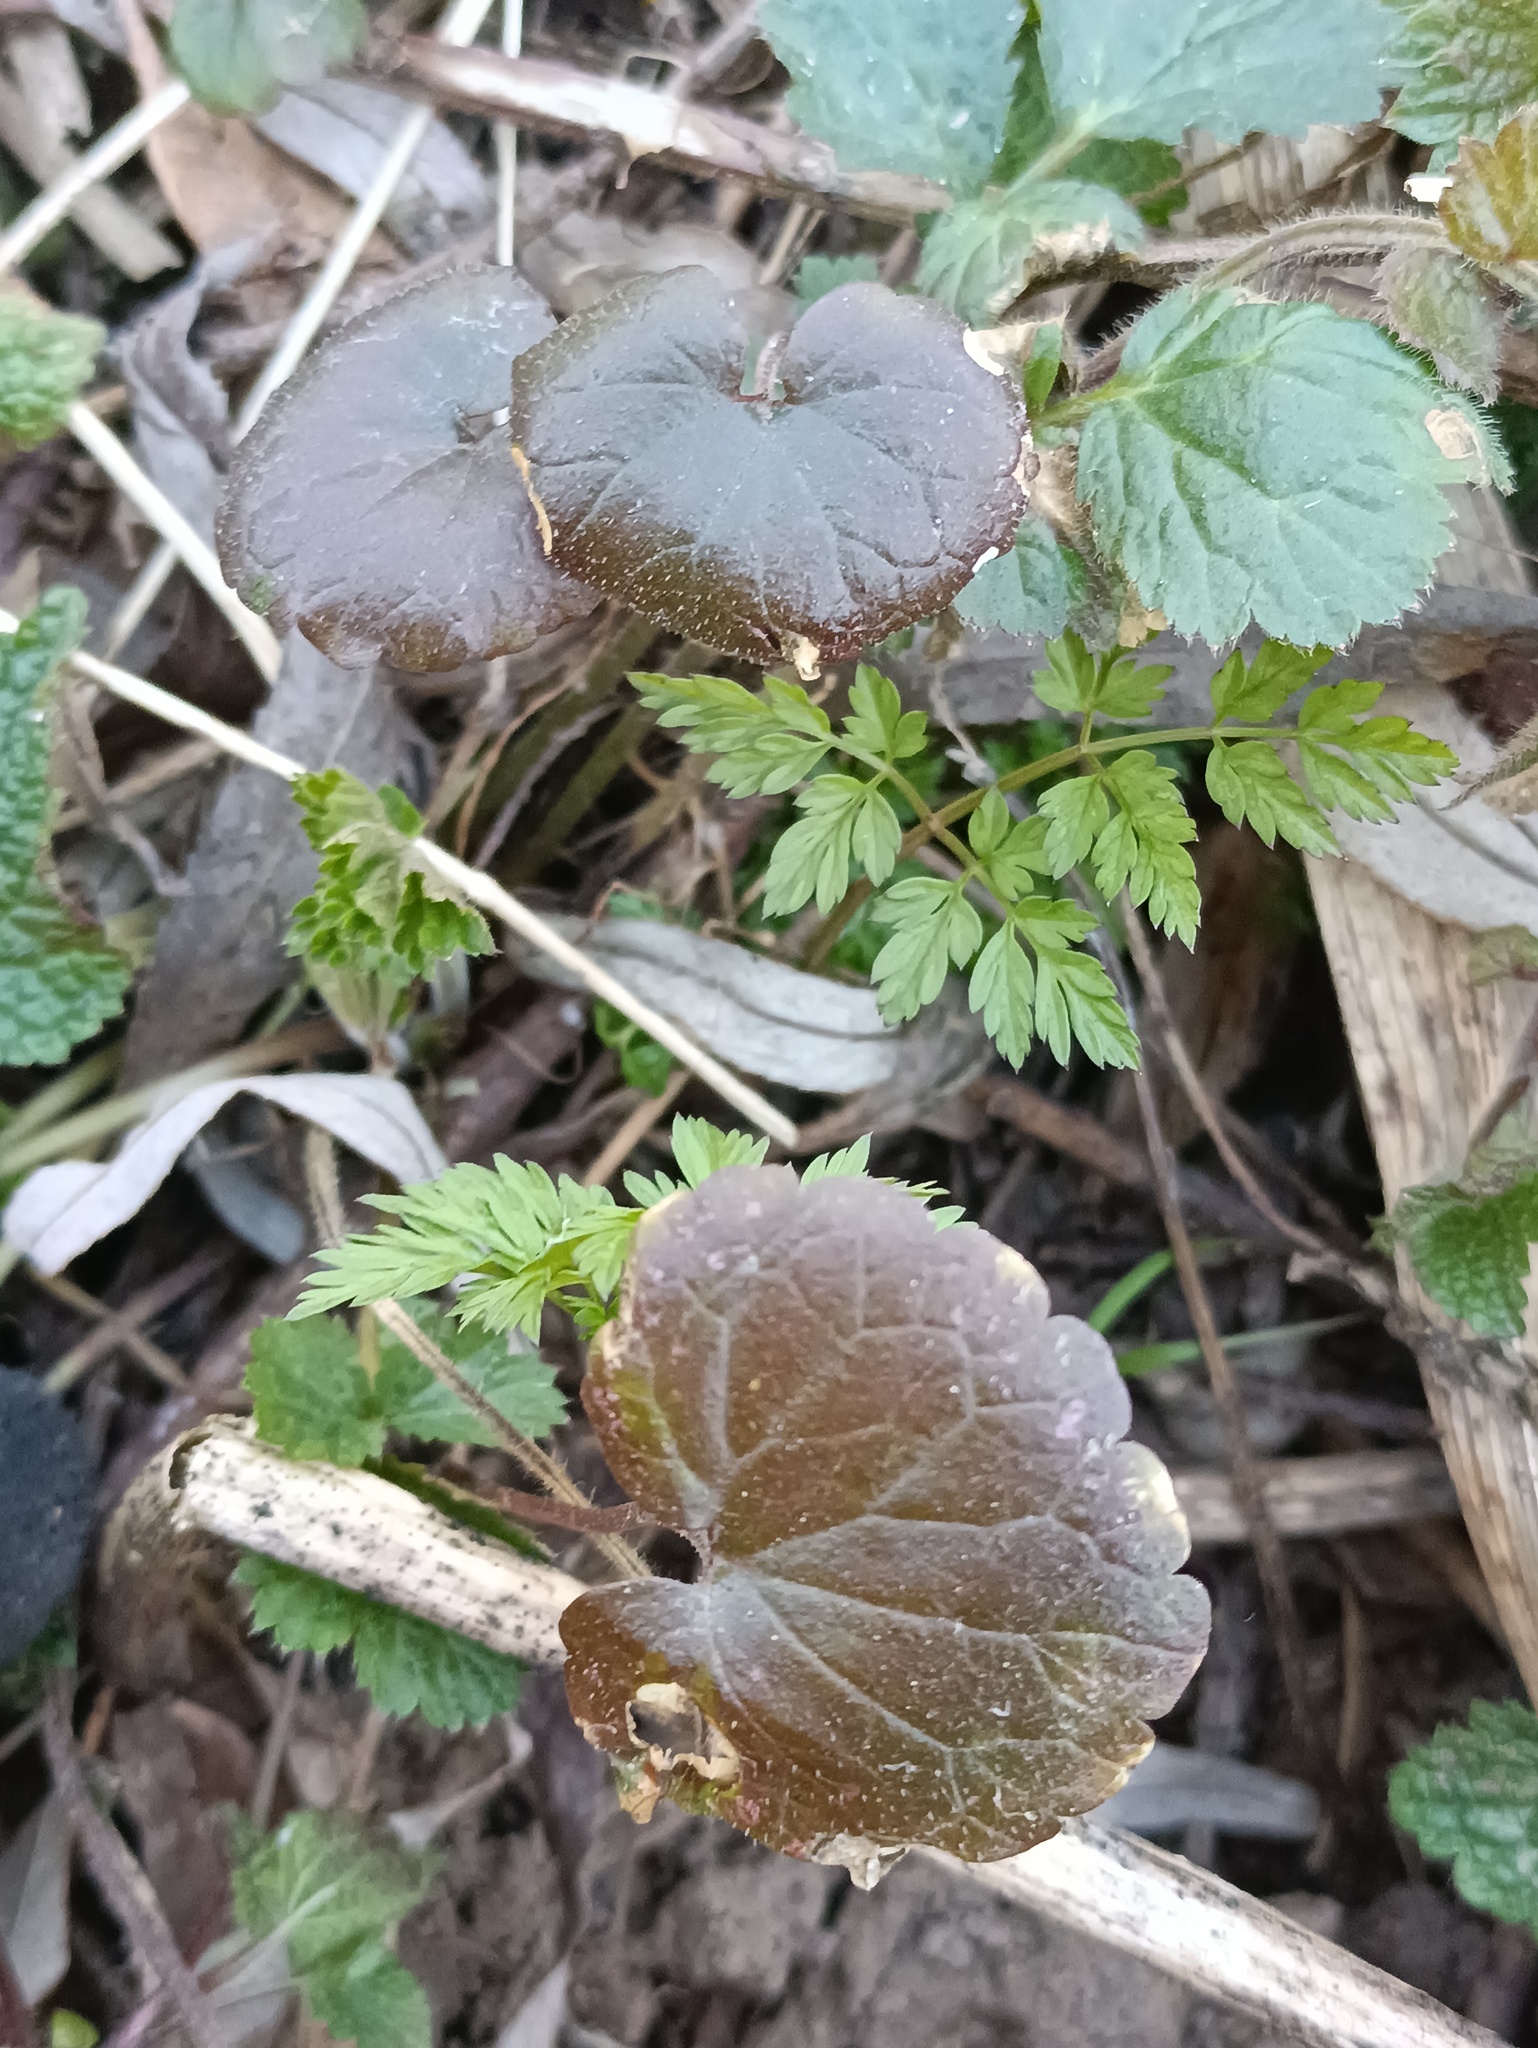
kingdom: Plantae
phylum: Tracheophyta
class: Magnoliopsida
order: Lamiales
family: Lamiaceae
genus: Glechoma
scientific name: Glechoma hederacea
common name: Ground ivy
